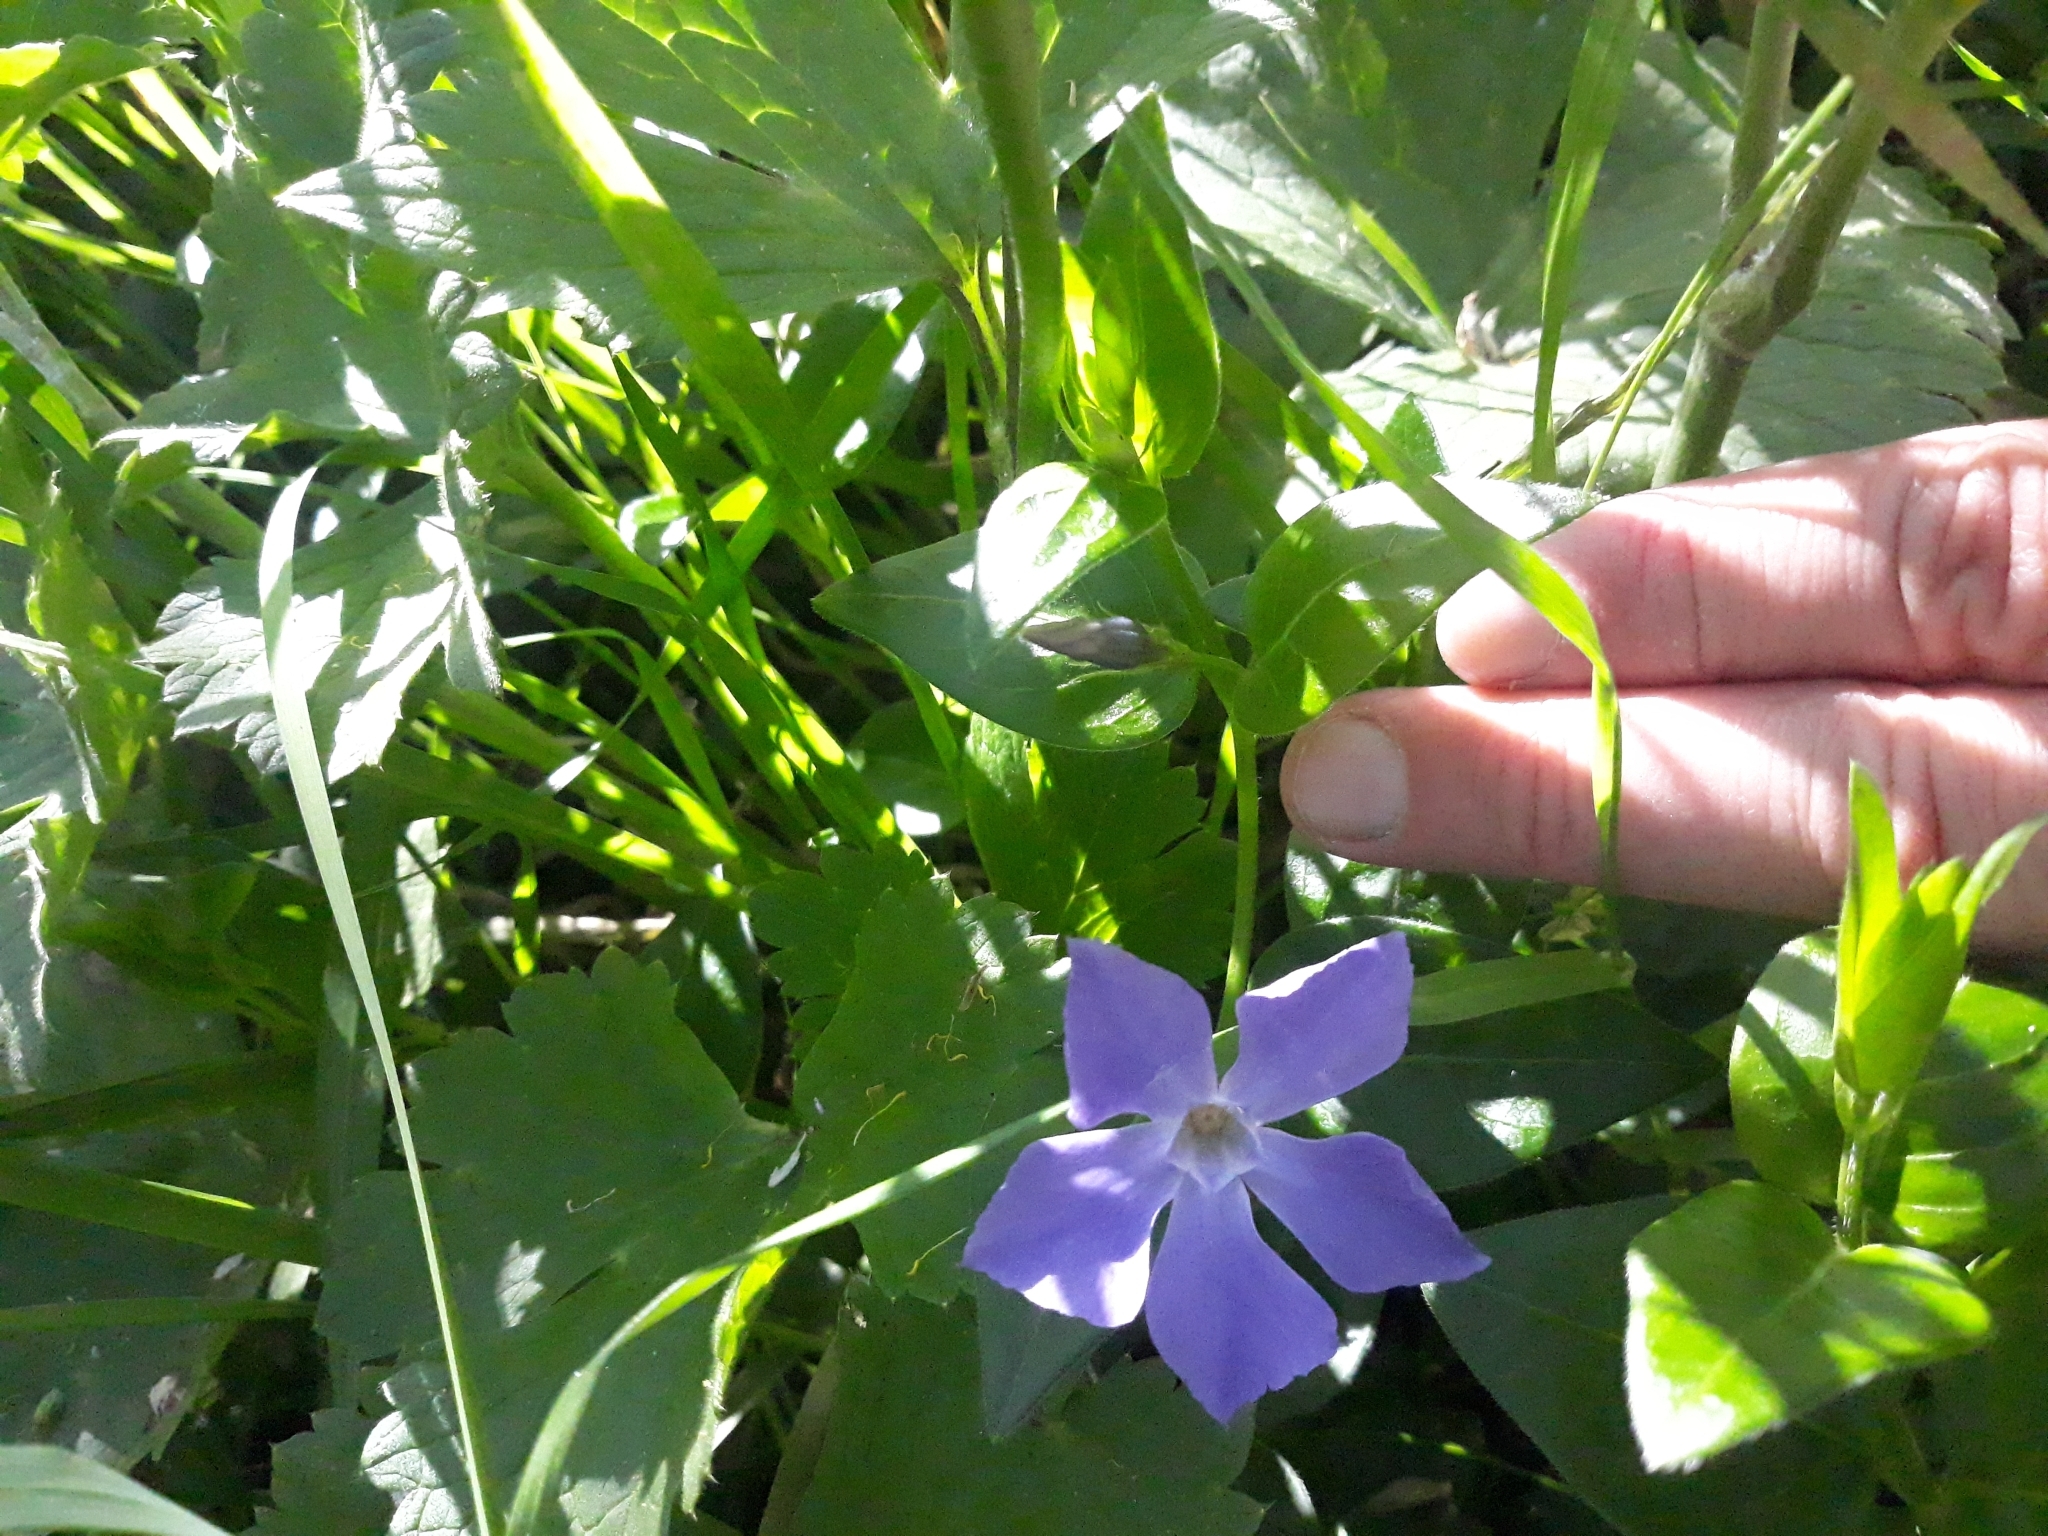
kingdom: Plantae
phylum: Tracheophyta
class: Magnoliopsida
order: Gentianales
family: Apocynaceae
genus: Vinca
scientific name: Vinca major
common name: Greater periwinkle
